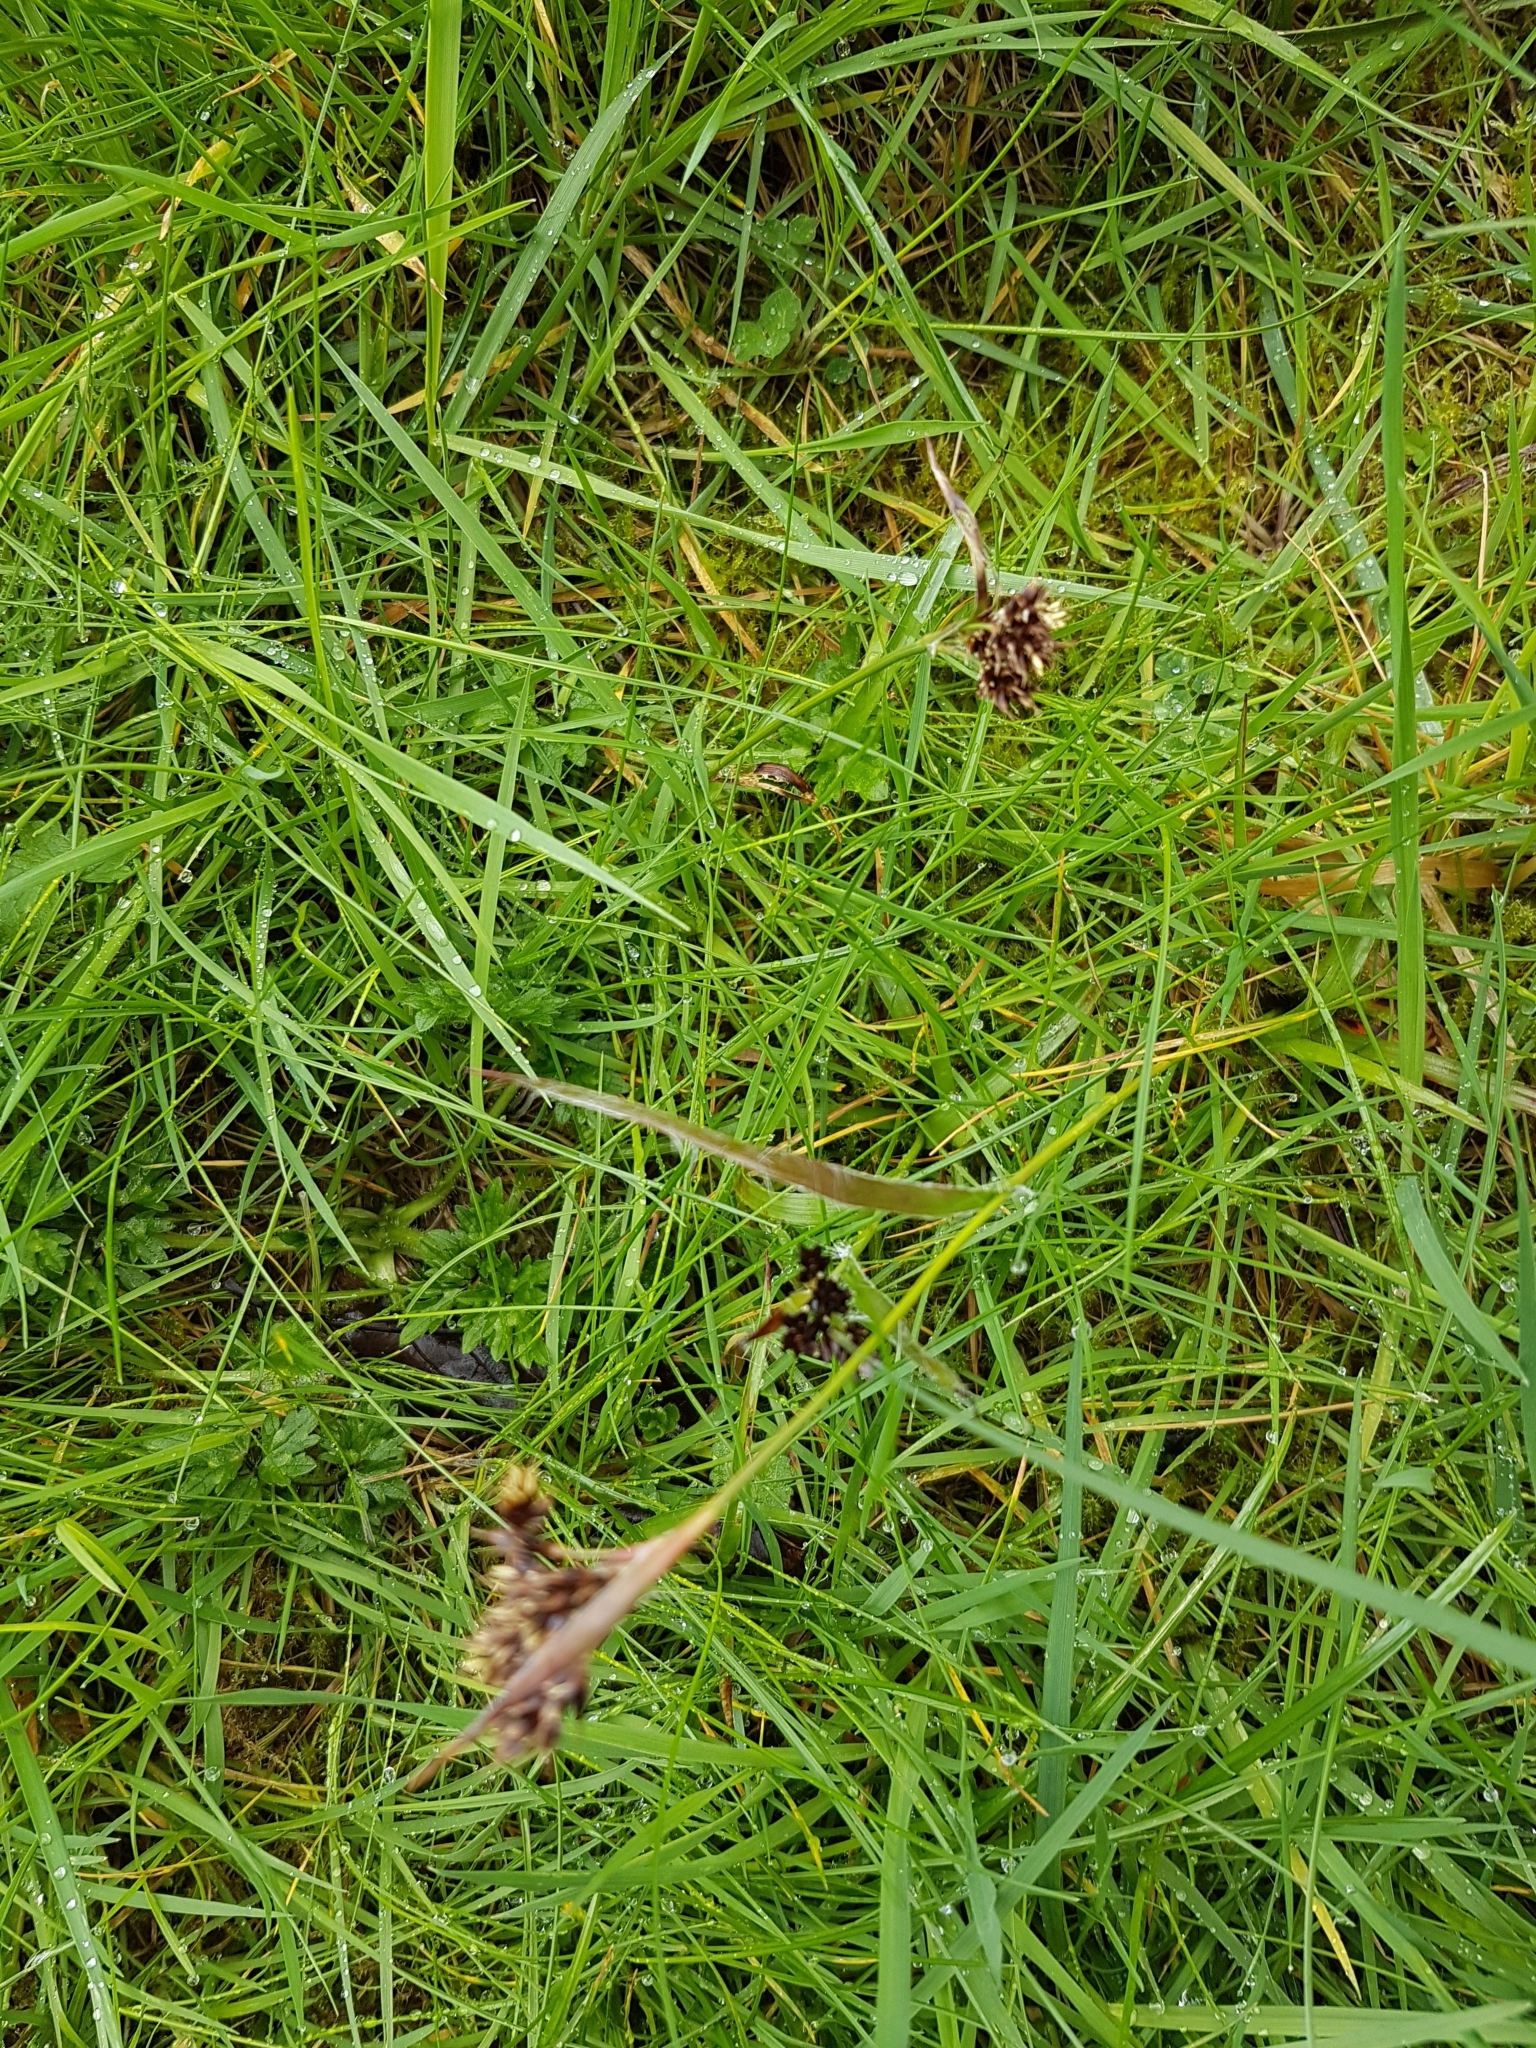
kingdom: Plantae
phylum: Tracheophyta
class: Liliopsida
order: Poales
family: Juncaceae
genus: Luzula
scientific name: Luzula campestris
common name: Field wood-rush
